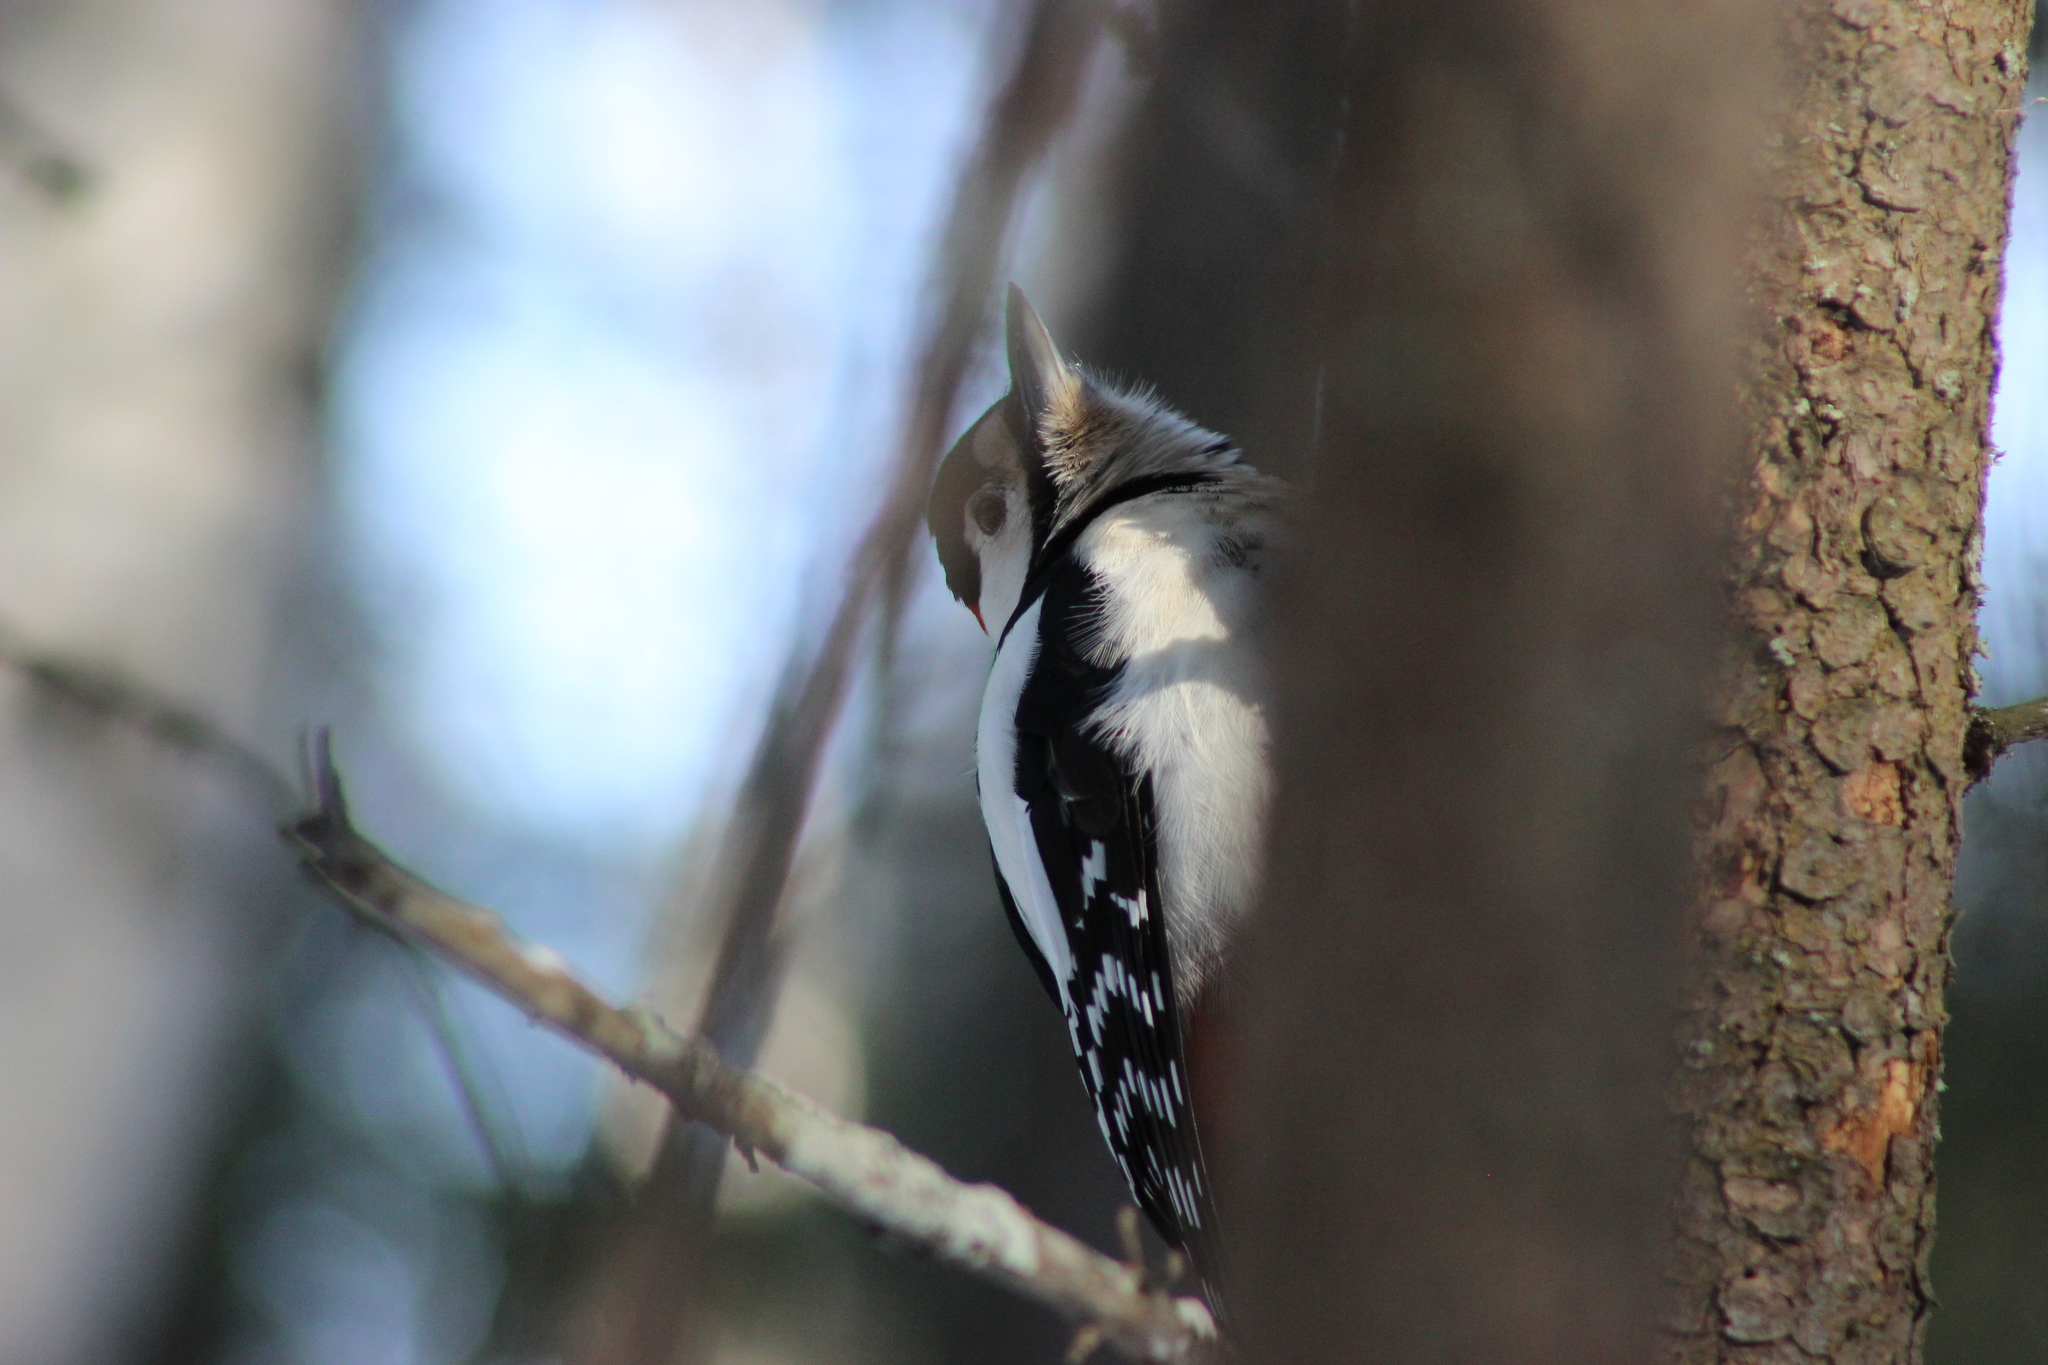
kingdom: Animalia
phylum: Chordata
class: Aves
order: Piciformes
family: Picidae
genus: Dendrocopos
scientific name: Dendrocopos major
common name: Great spotted woodpecker
